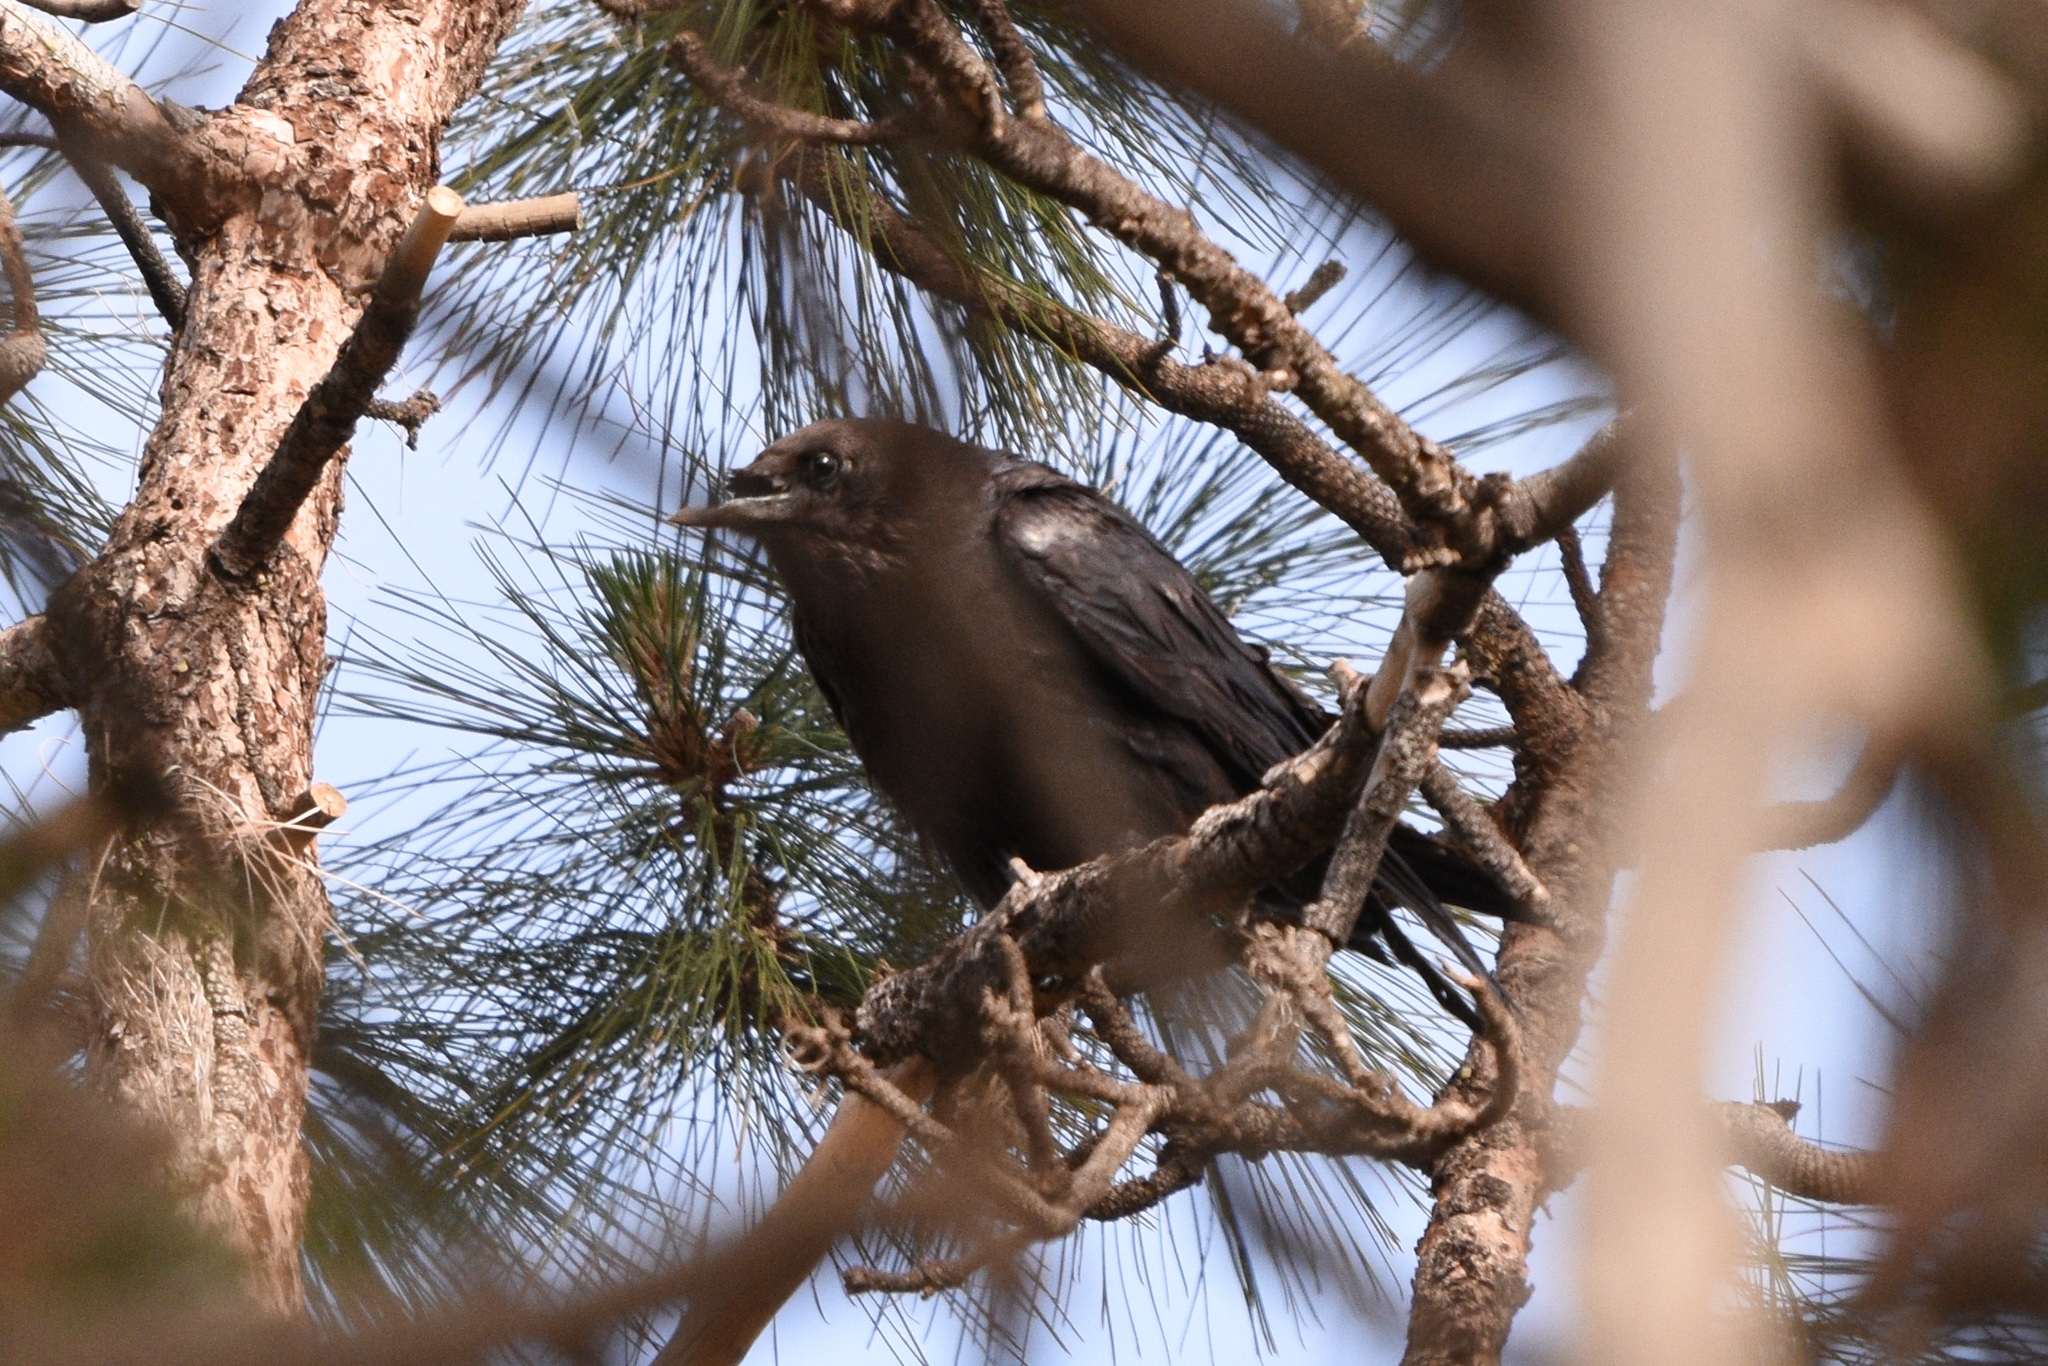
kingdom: Animalia
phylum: Chordata
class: Aves
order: Passeriformes
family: Corvidae
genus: Corvus
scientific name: Corvus corax
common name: Common raven
